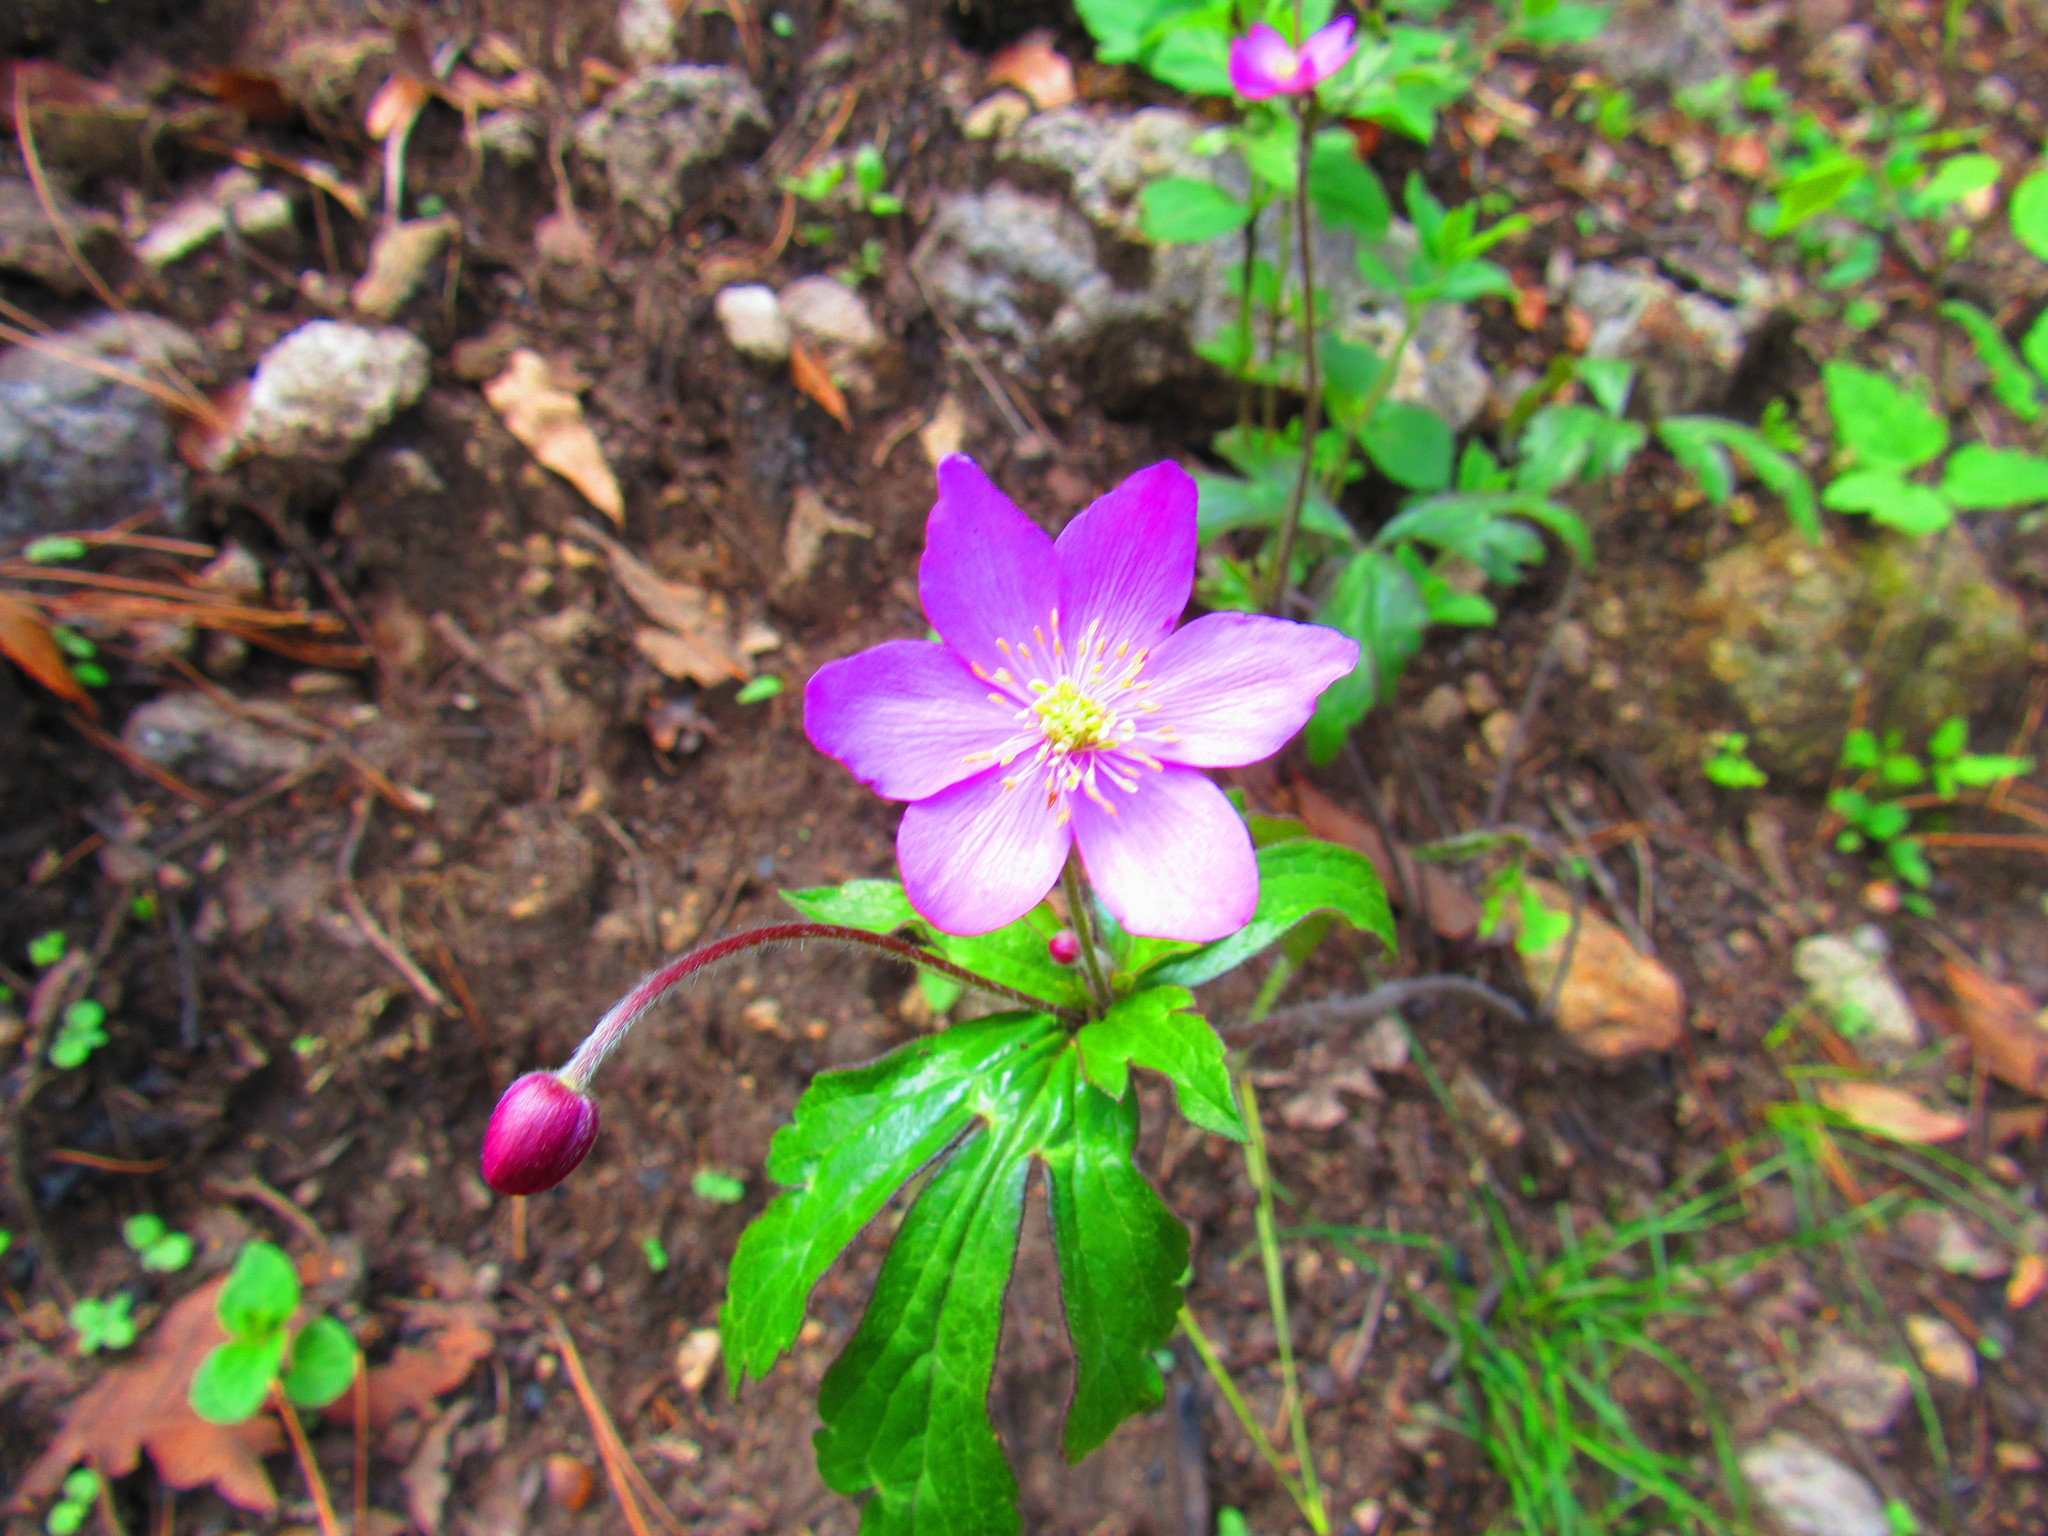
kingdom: Plantae
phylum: Tracheophyta
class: Magnoliopsida
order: Ranunculales
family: Ranunculaceae
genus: Knowltonia
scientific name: Knowltonia mexicana
